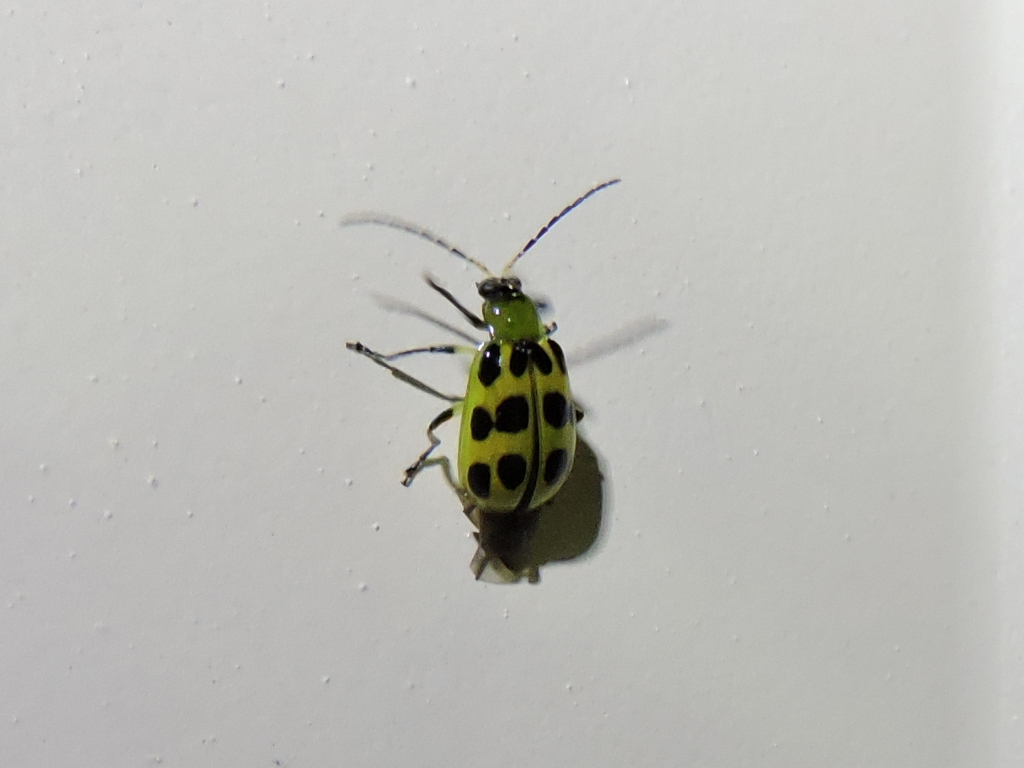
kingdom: Animalia
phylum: Arthropoda
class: Insecta
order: Coleoptera
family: Chrysomelidae
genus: Diabrotica
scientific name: Diabrotica undecimpunctata
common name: Spotted cucumber beetle
